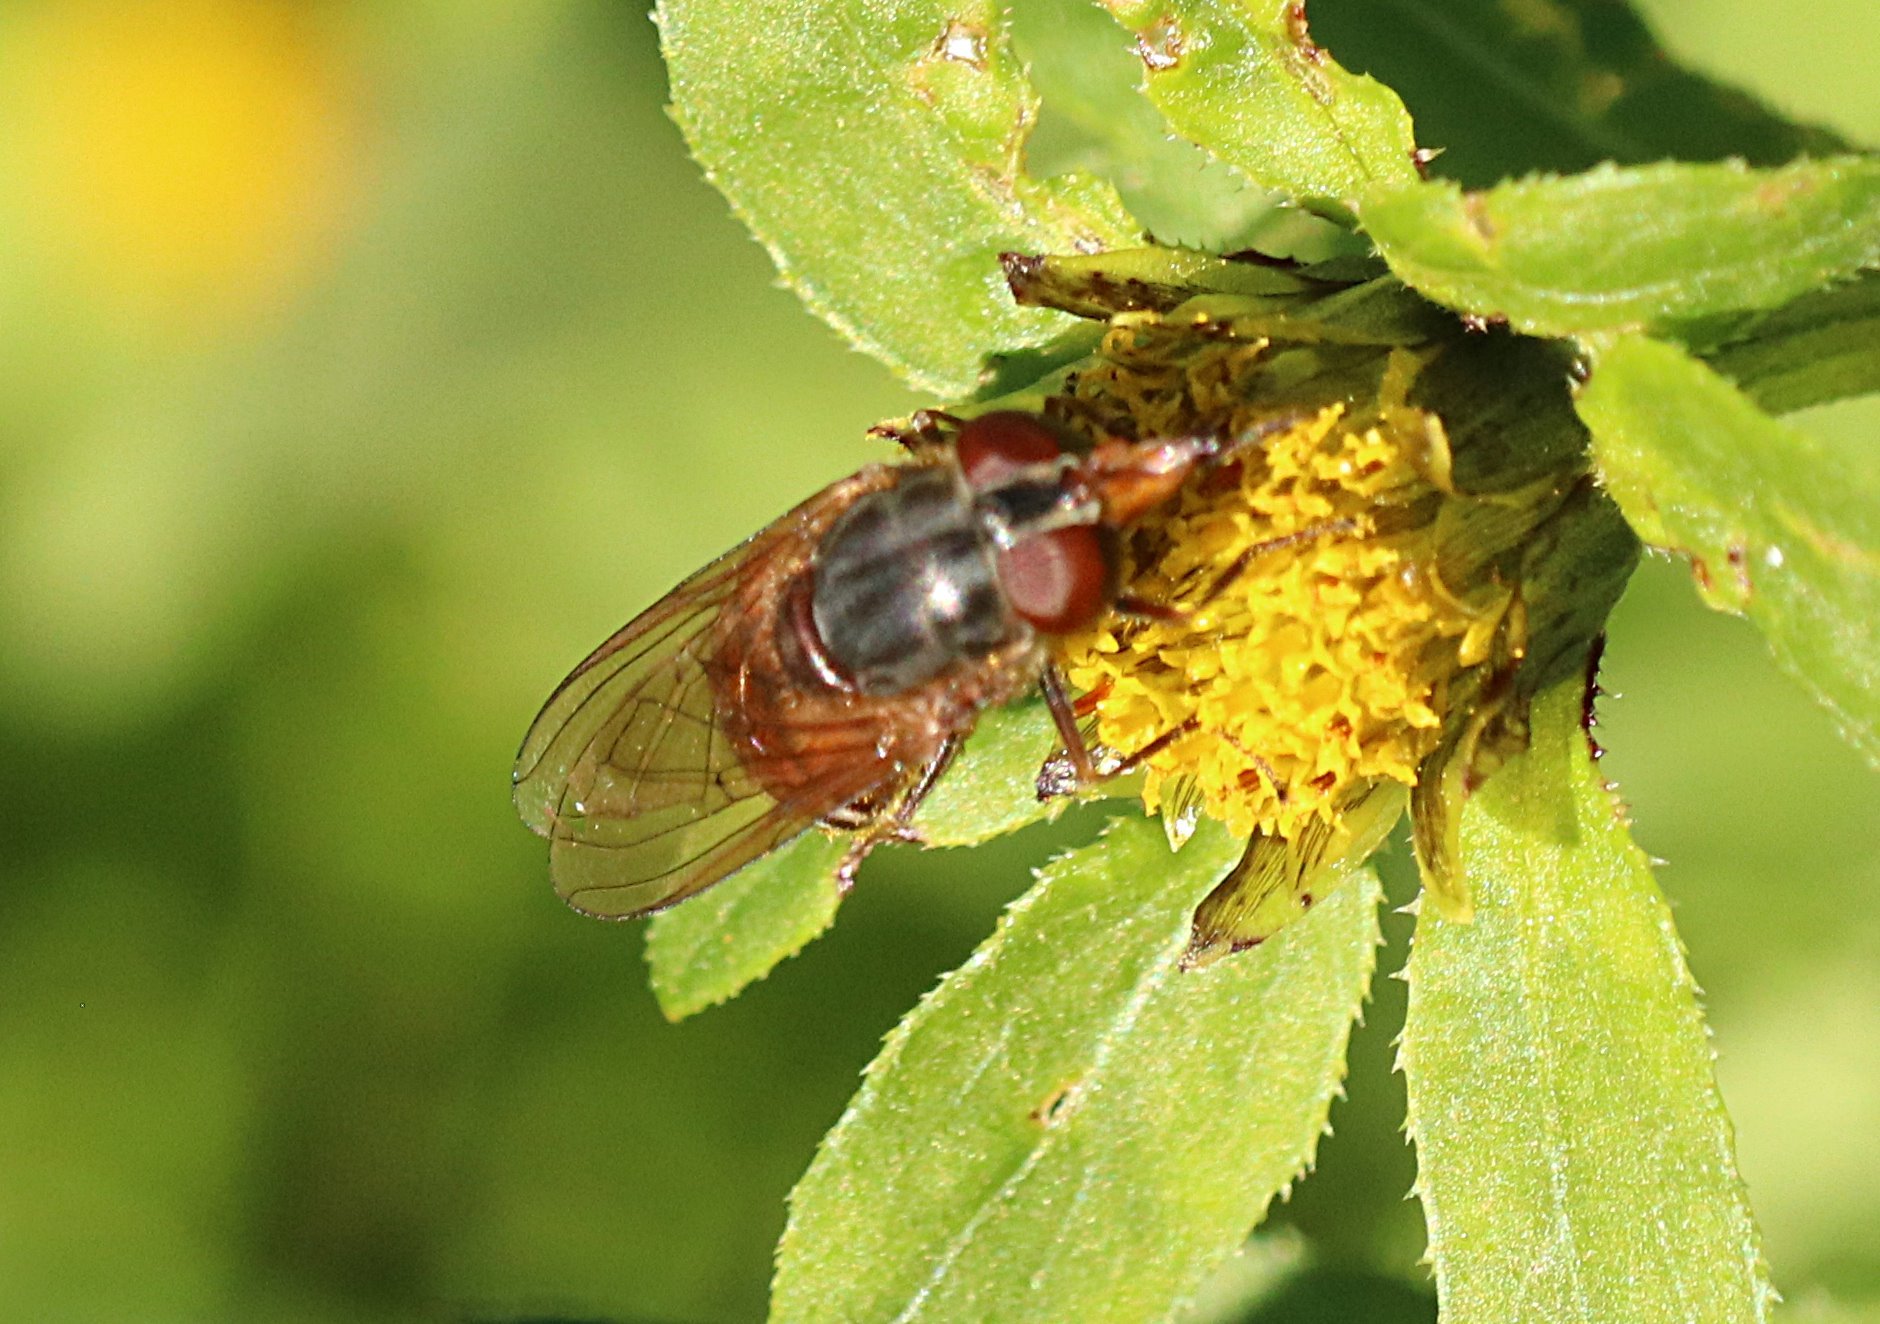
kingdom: Animalia
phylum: Arthropoda
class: Insecta
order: Diptera
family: Syrphidae
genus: Rhingia
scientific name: Rhingia campestris
